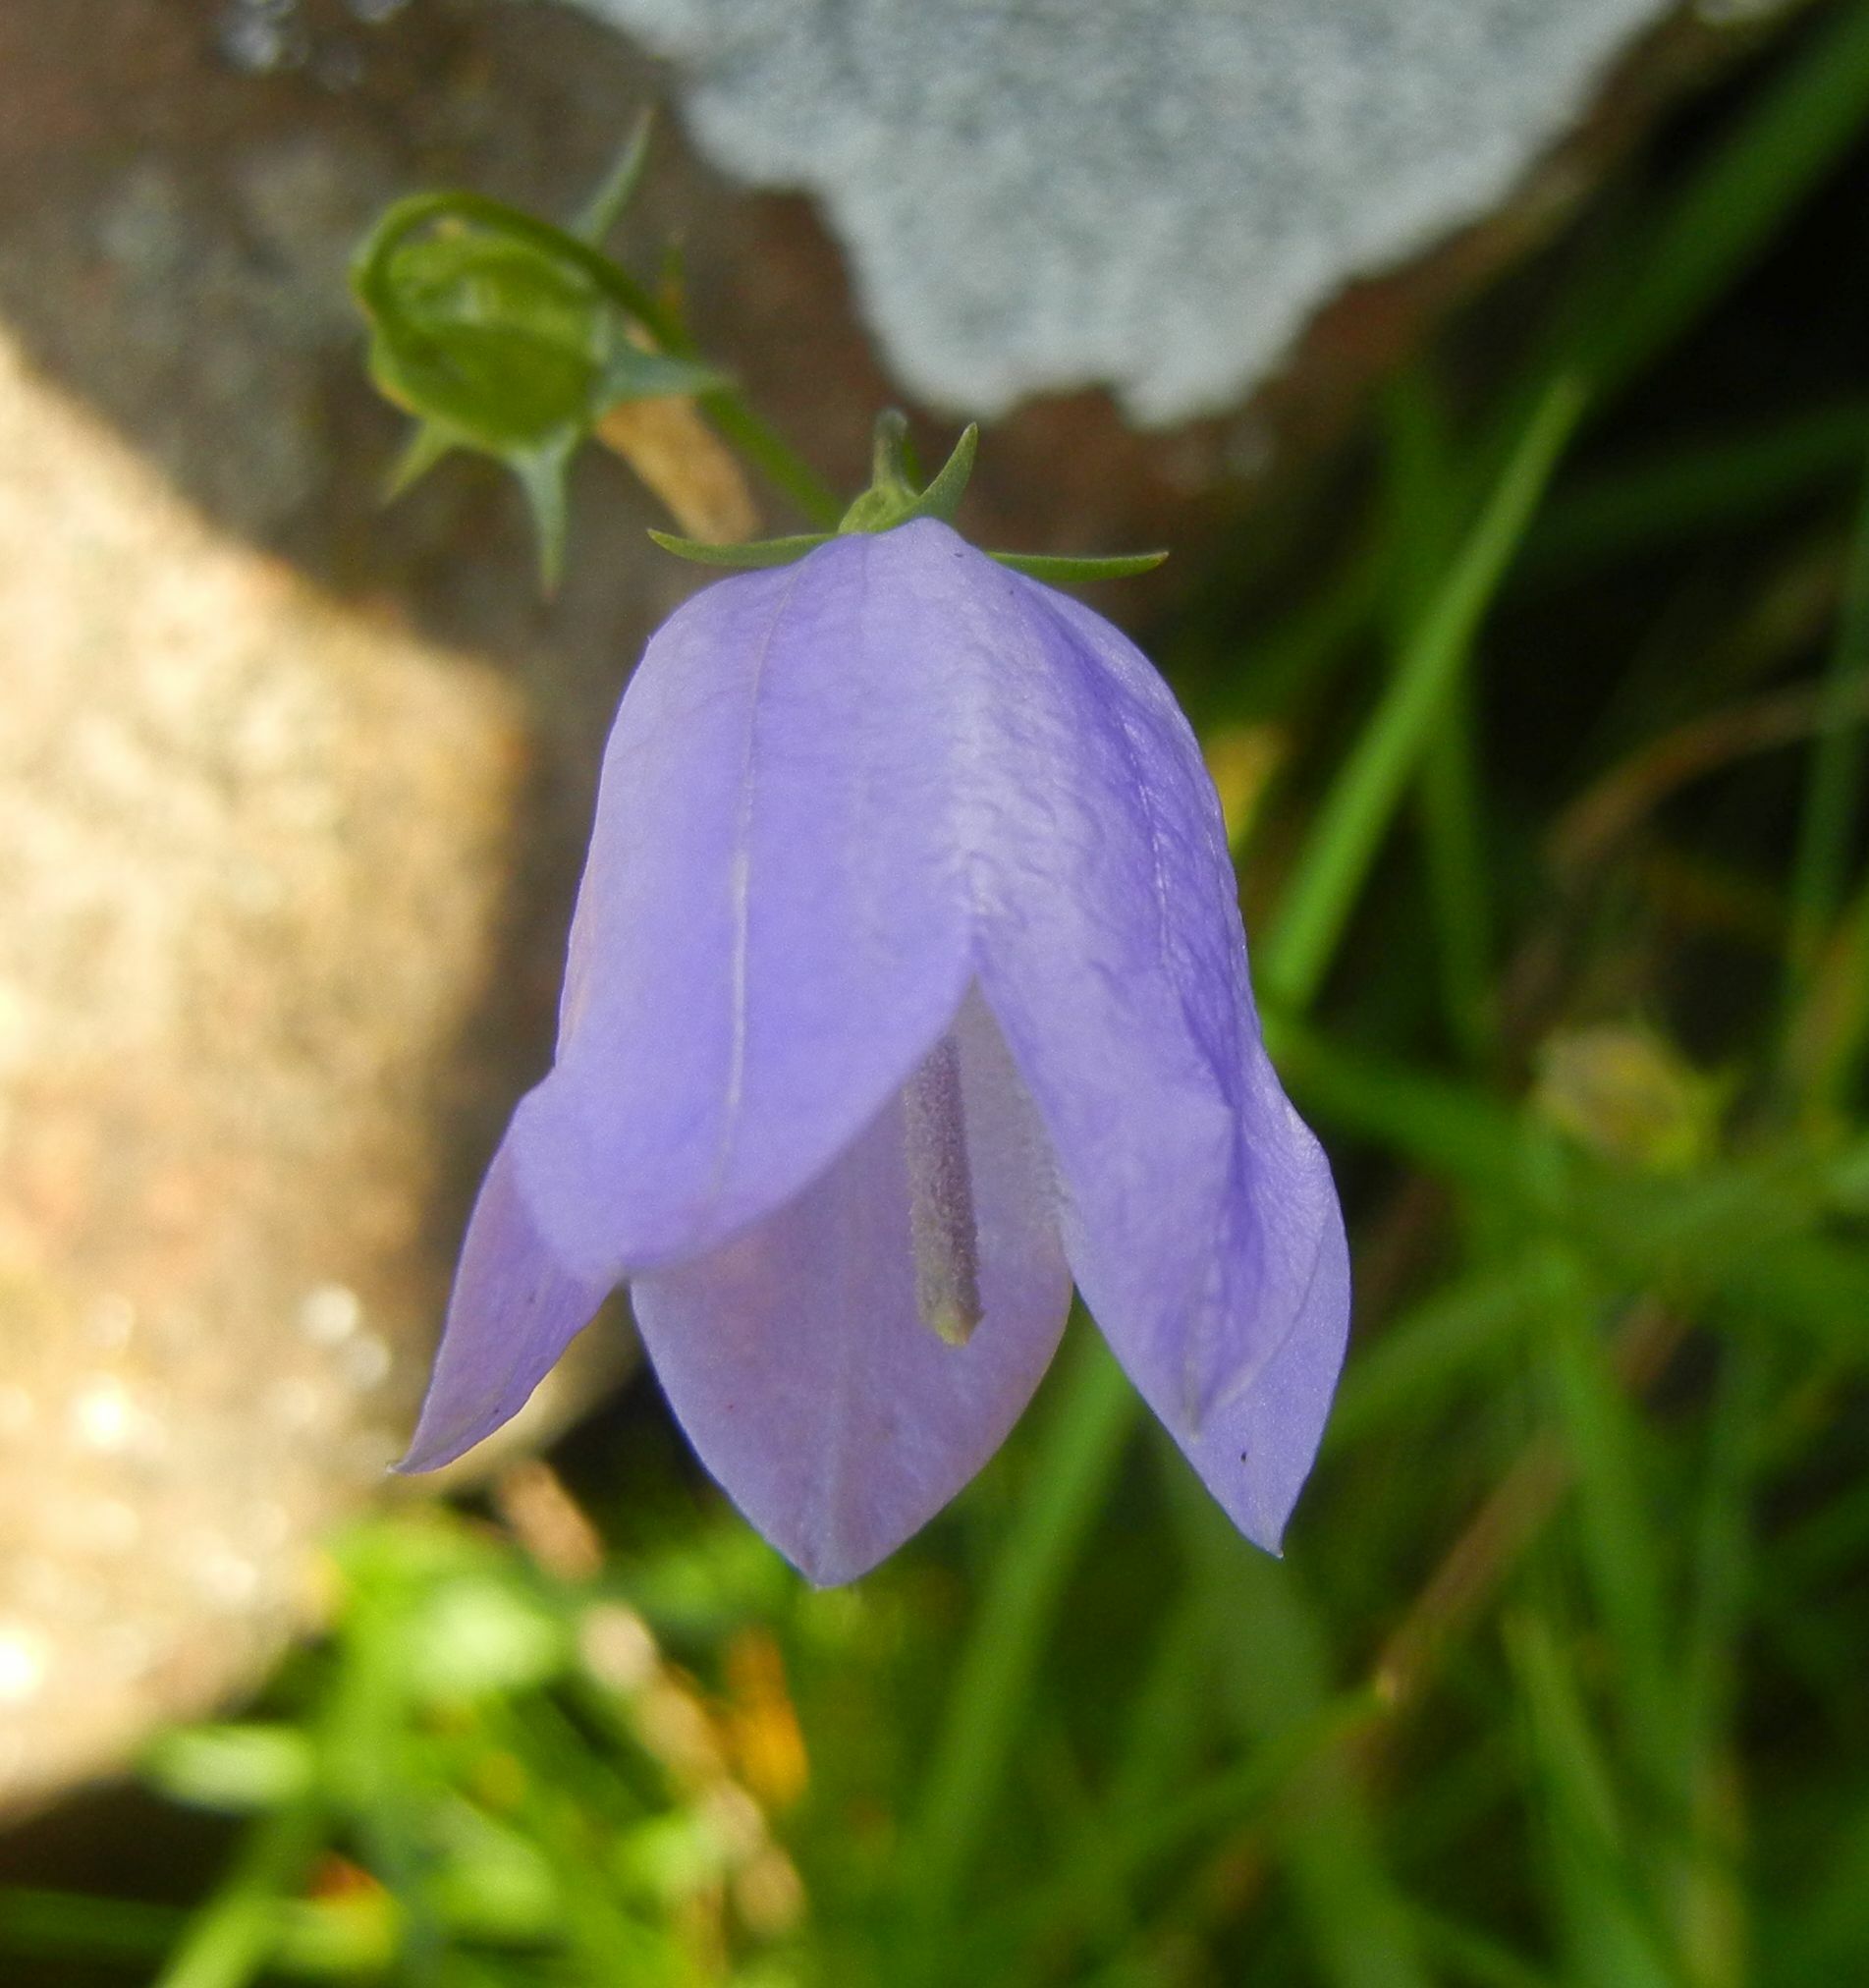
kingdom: Plantae
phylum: Tracheophyta
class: Magnoliopsida
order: Asterales
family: Campanulaceae
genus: Campanula
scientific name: Campanula rotundifolia
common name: Harebell
